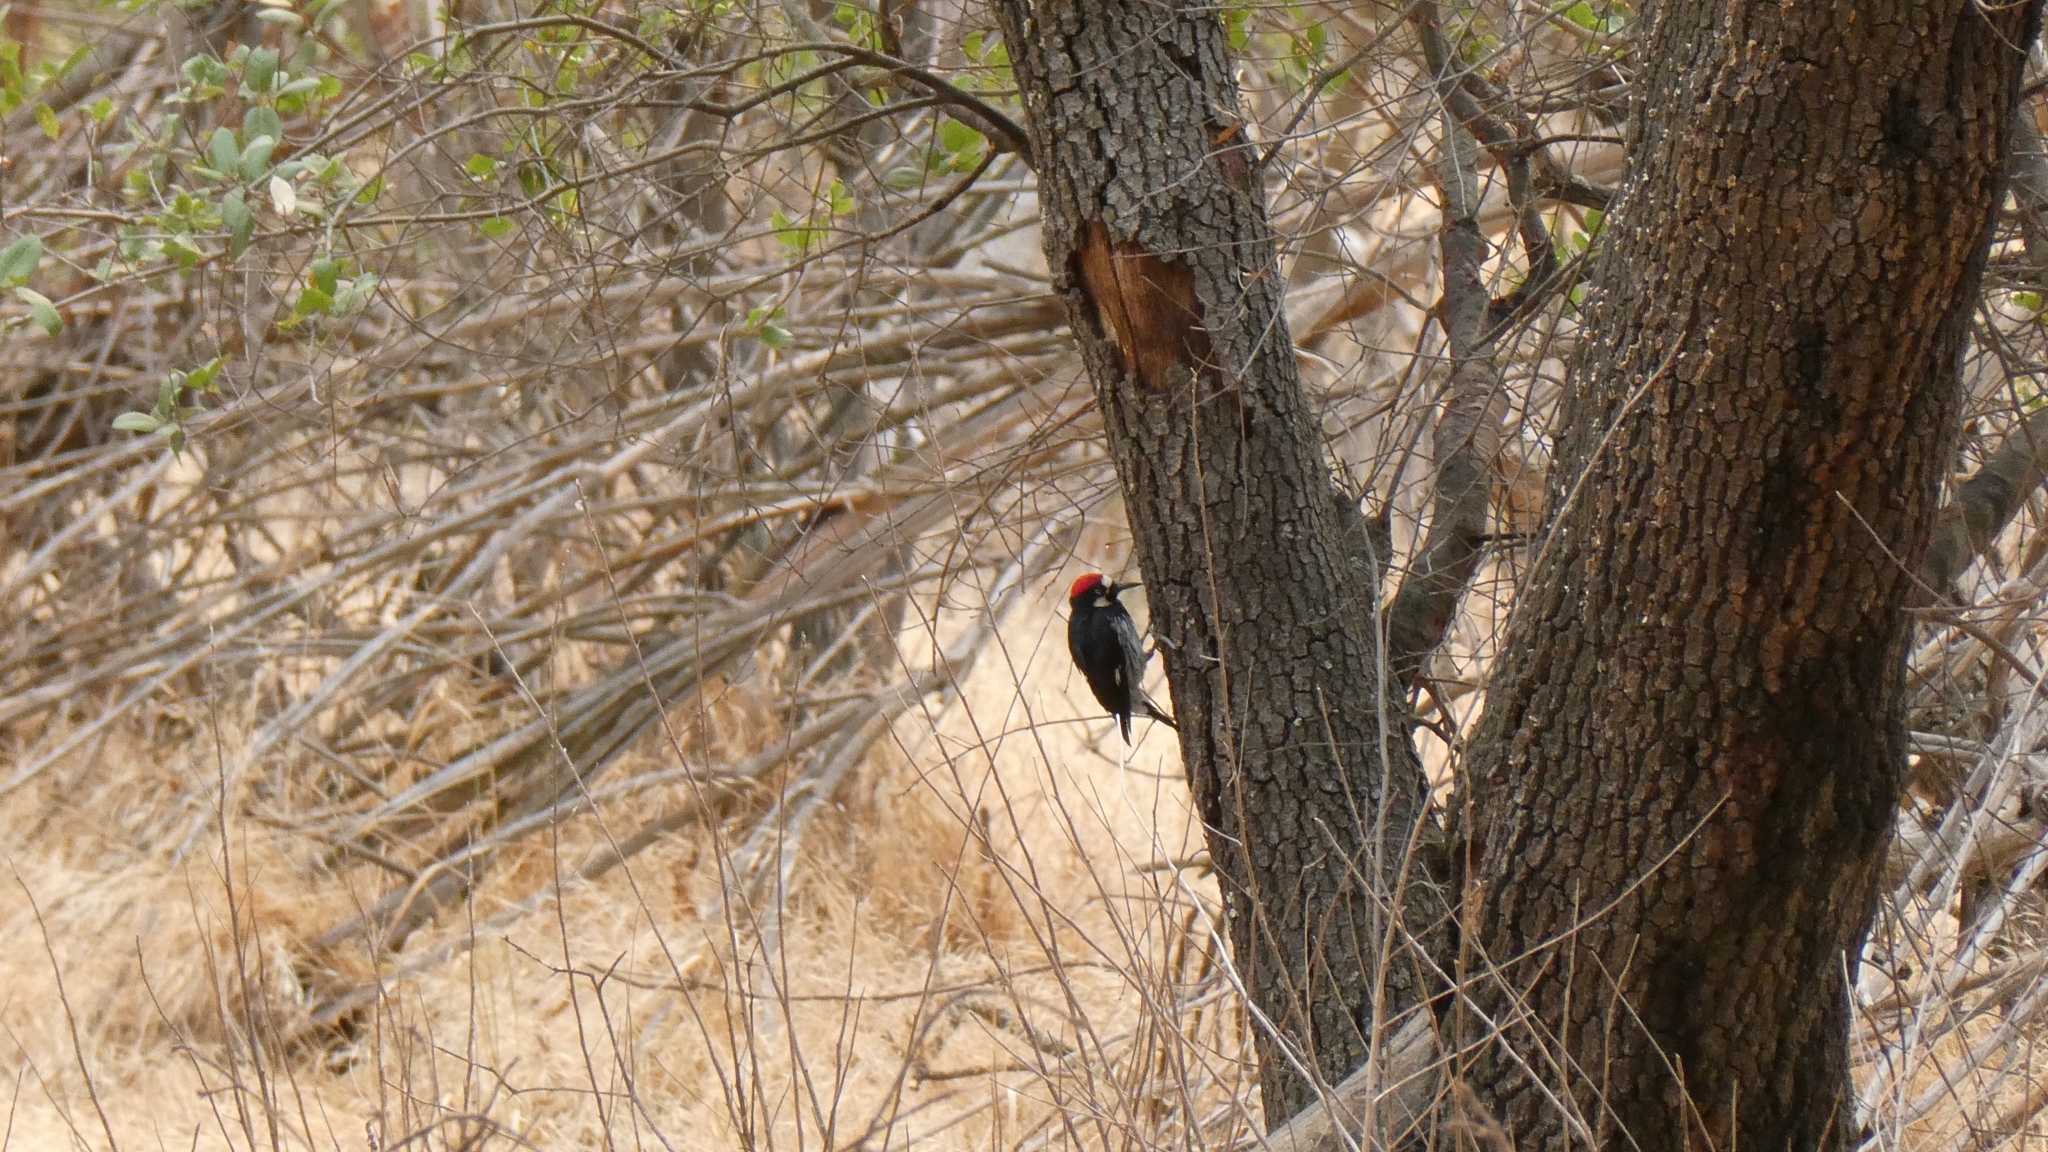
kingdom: Animalia
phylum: Chordata
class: Aves
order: Piciformes
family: Picidae
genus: Melanerpes
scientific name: Melanerpes formicivorus
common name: Acorn woodpecker
